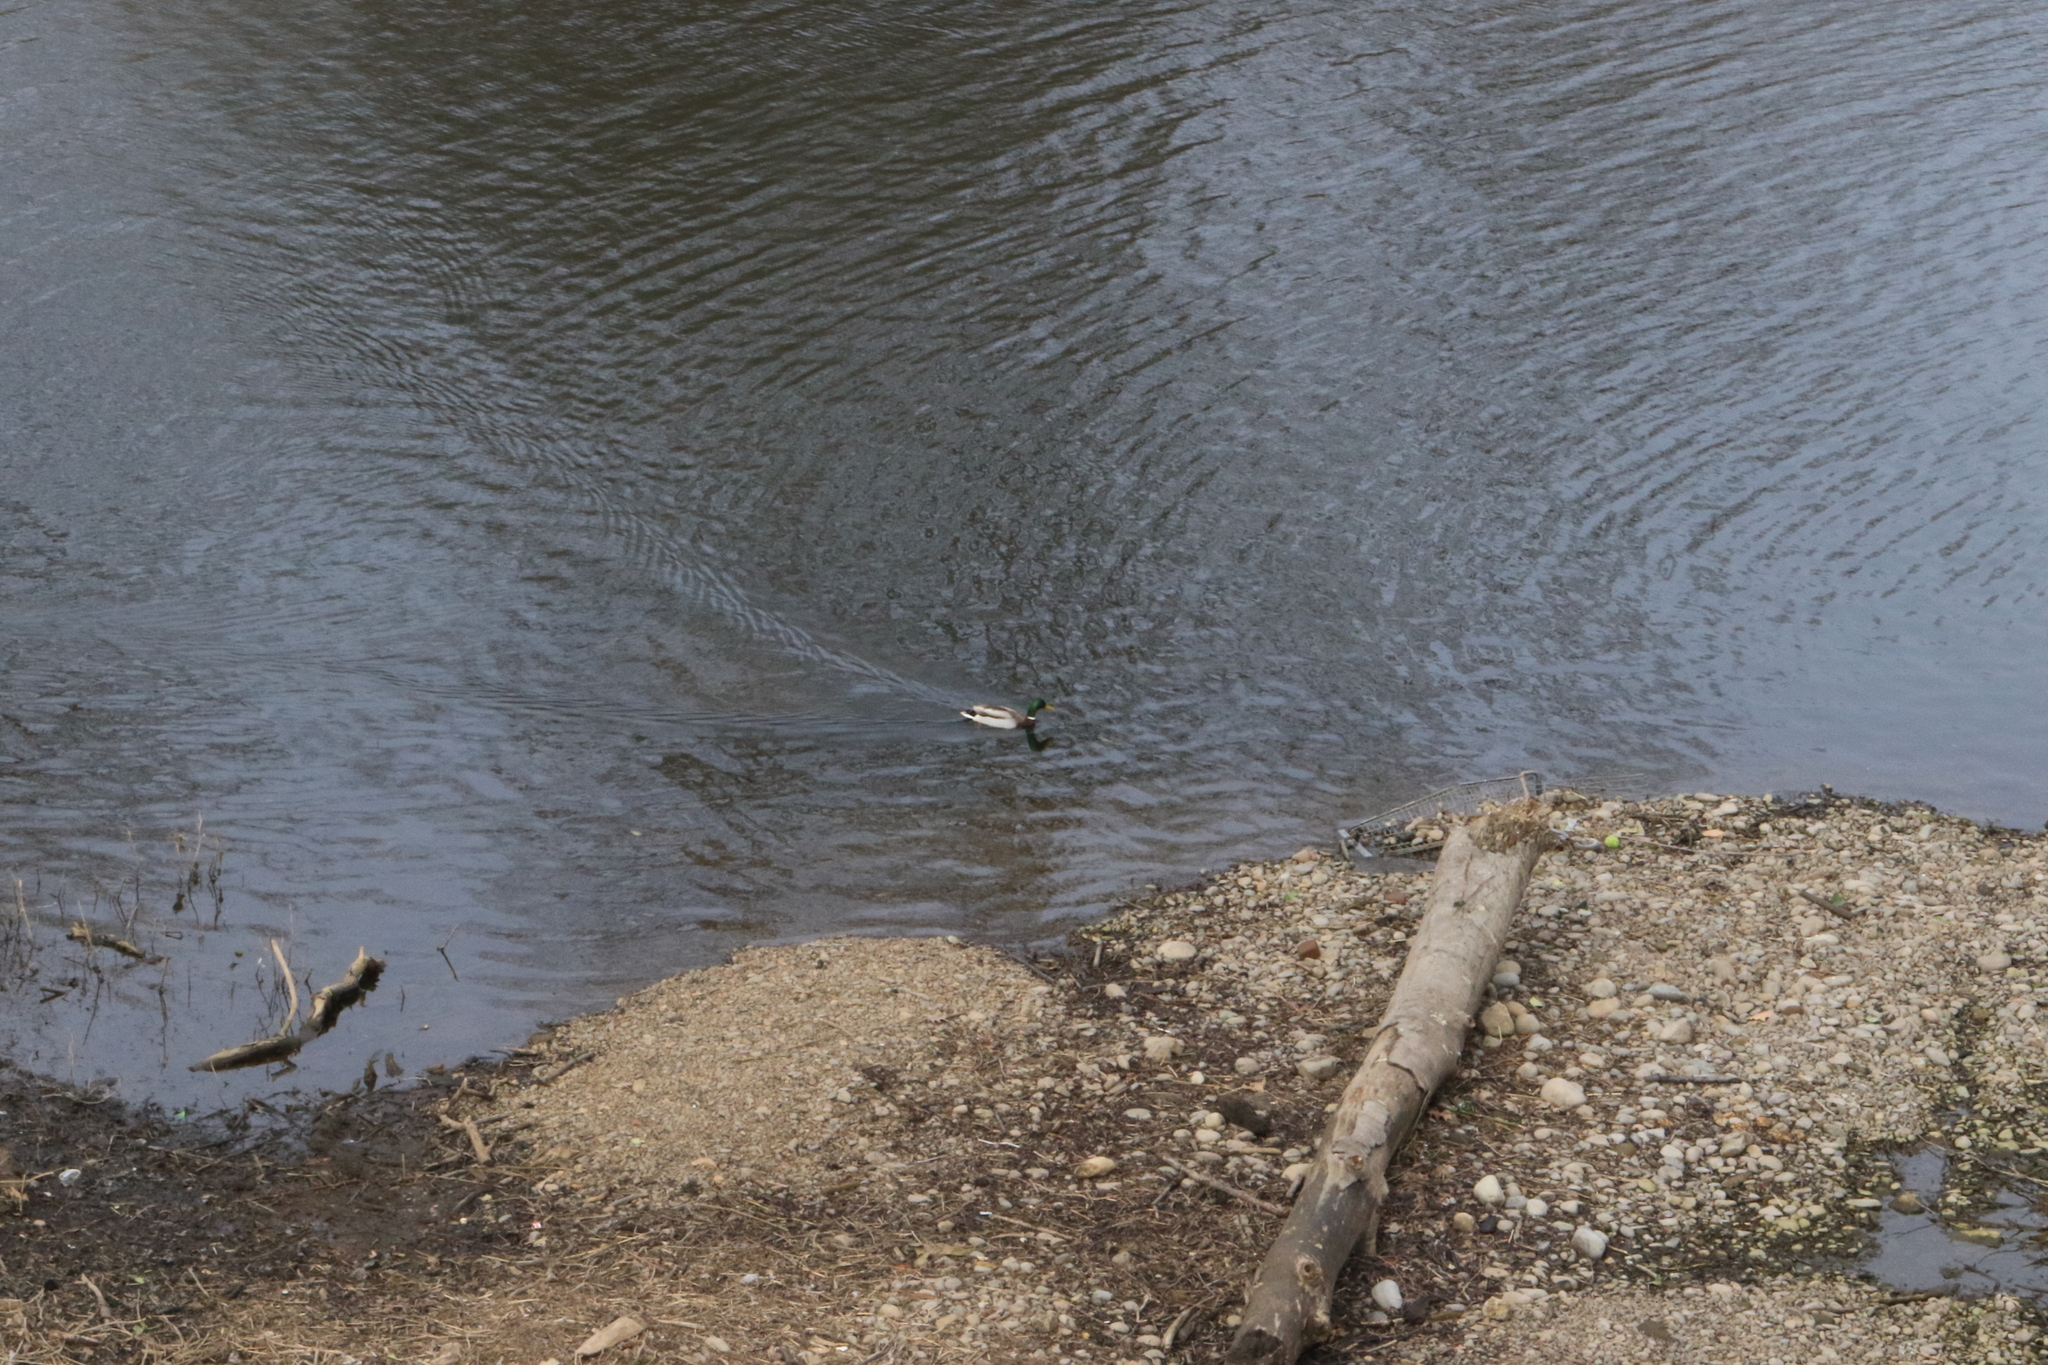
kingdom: Animalia
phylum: Chordata
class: Aves
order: Anseriformes
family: Anatidae
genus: Anas
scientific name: Anas platyrhynchos
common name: Mallard
